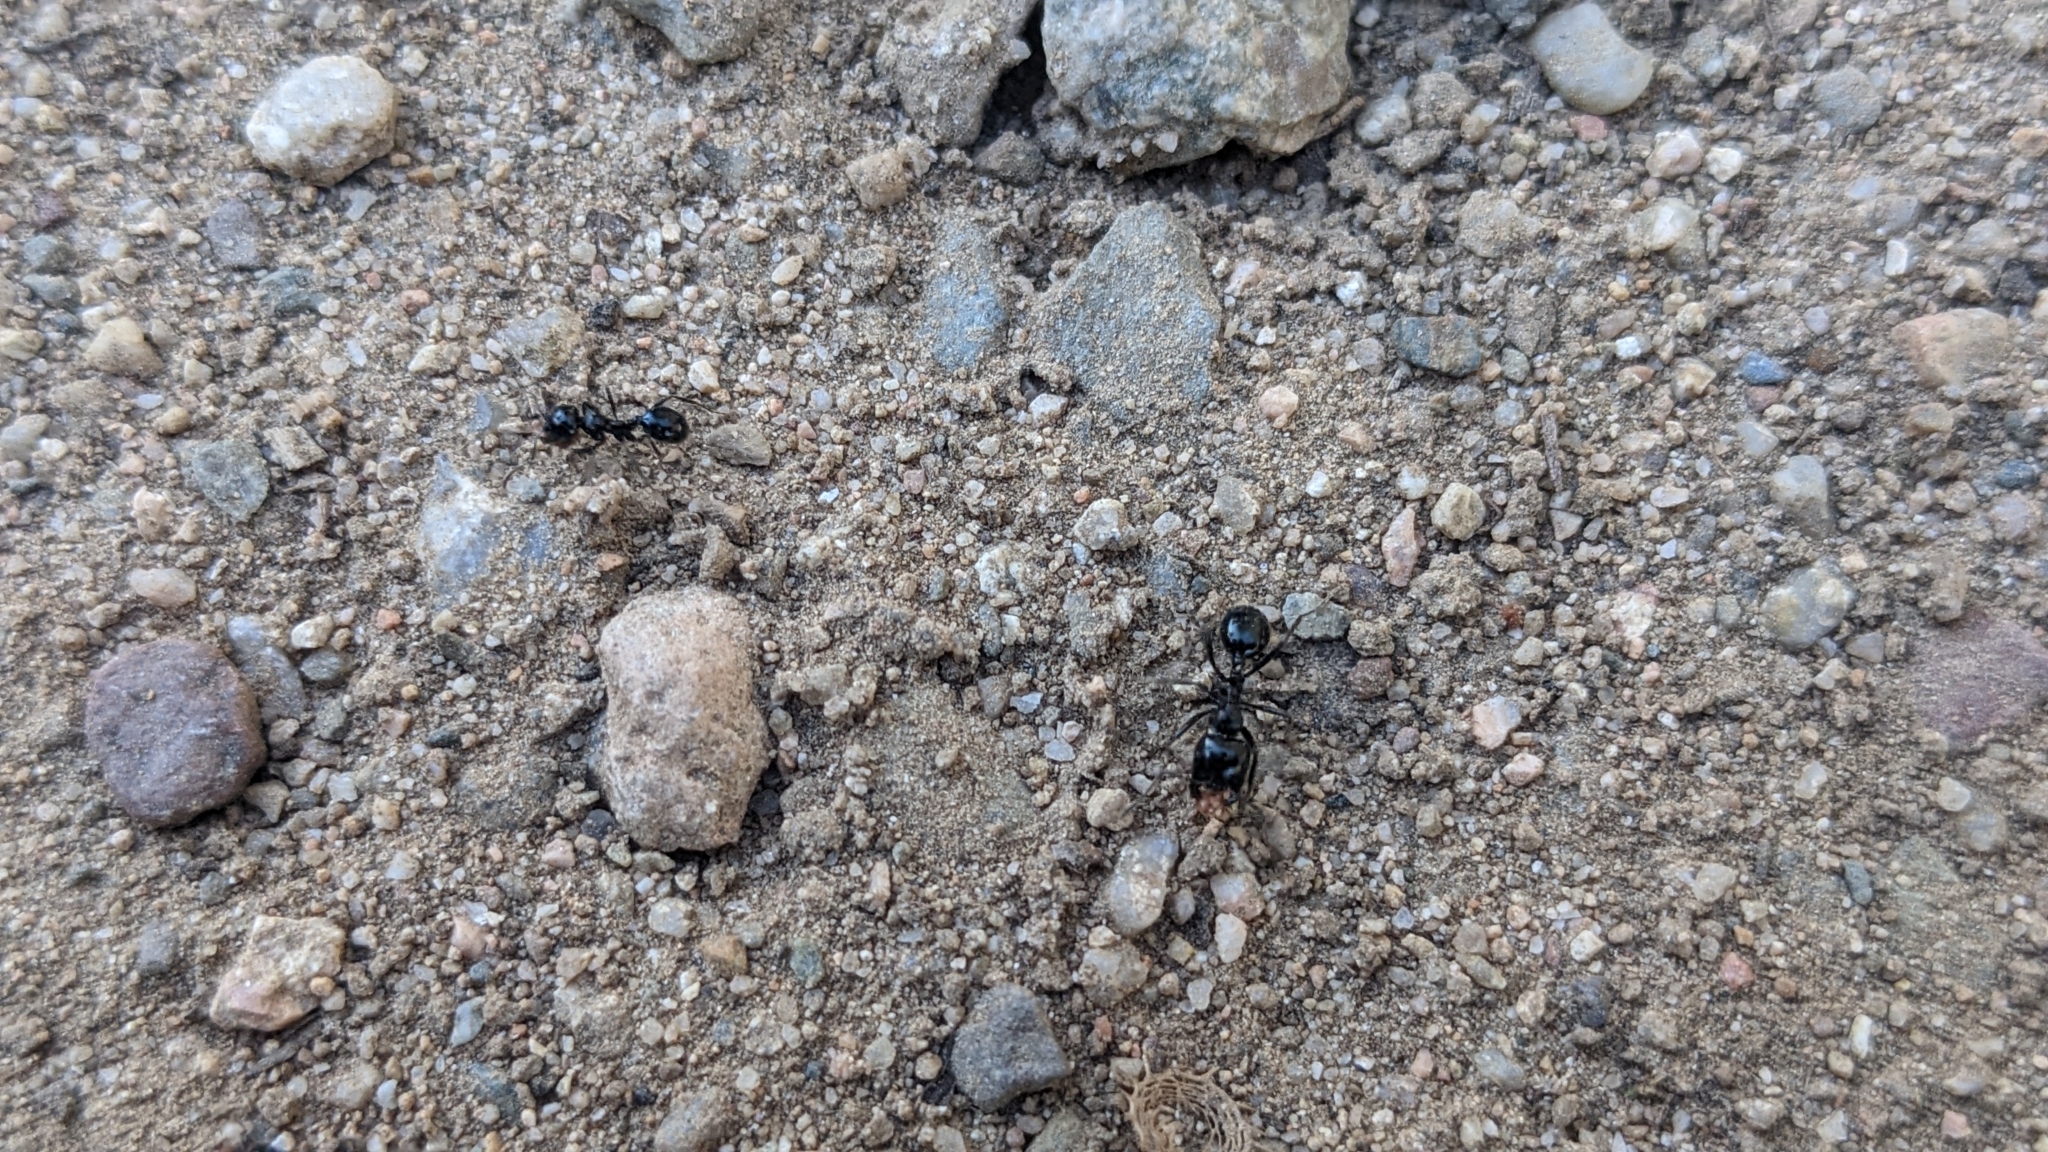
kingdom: Animalia
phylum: Arthropoda
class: Insecta
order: Hymenoptera
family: Formicidae
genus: Messor
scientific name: Messor bouvieri
